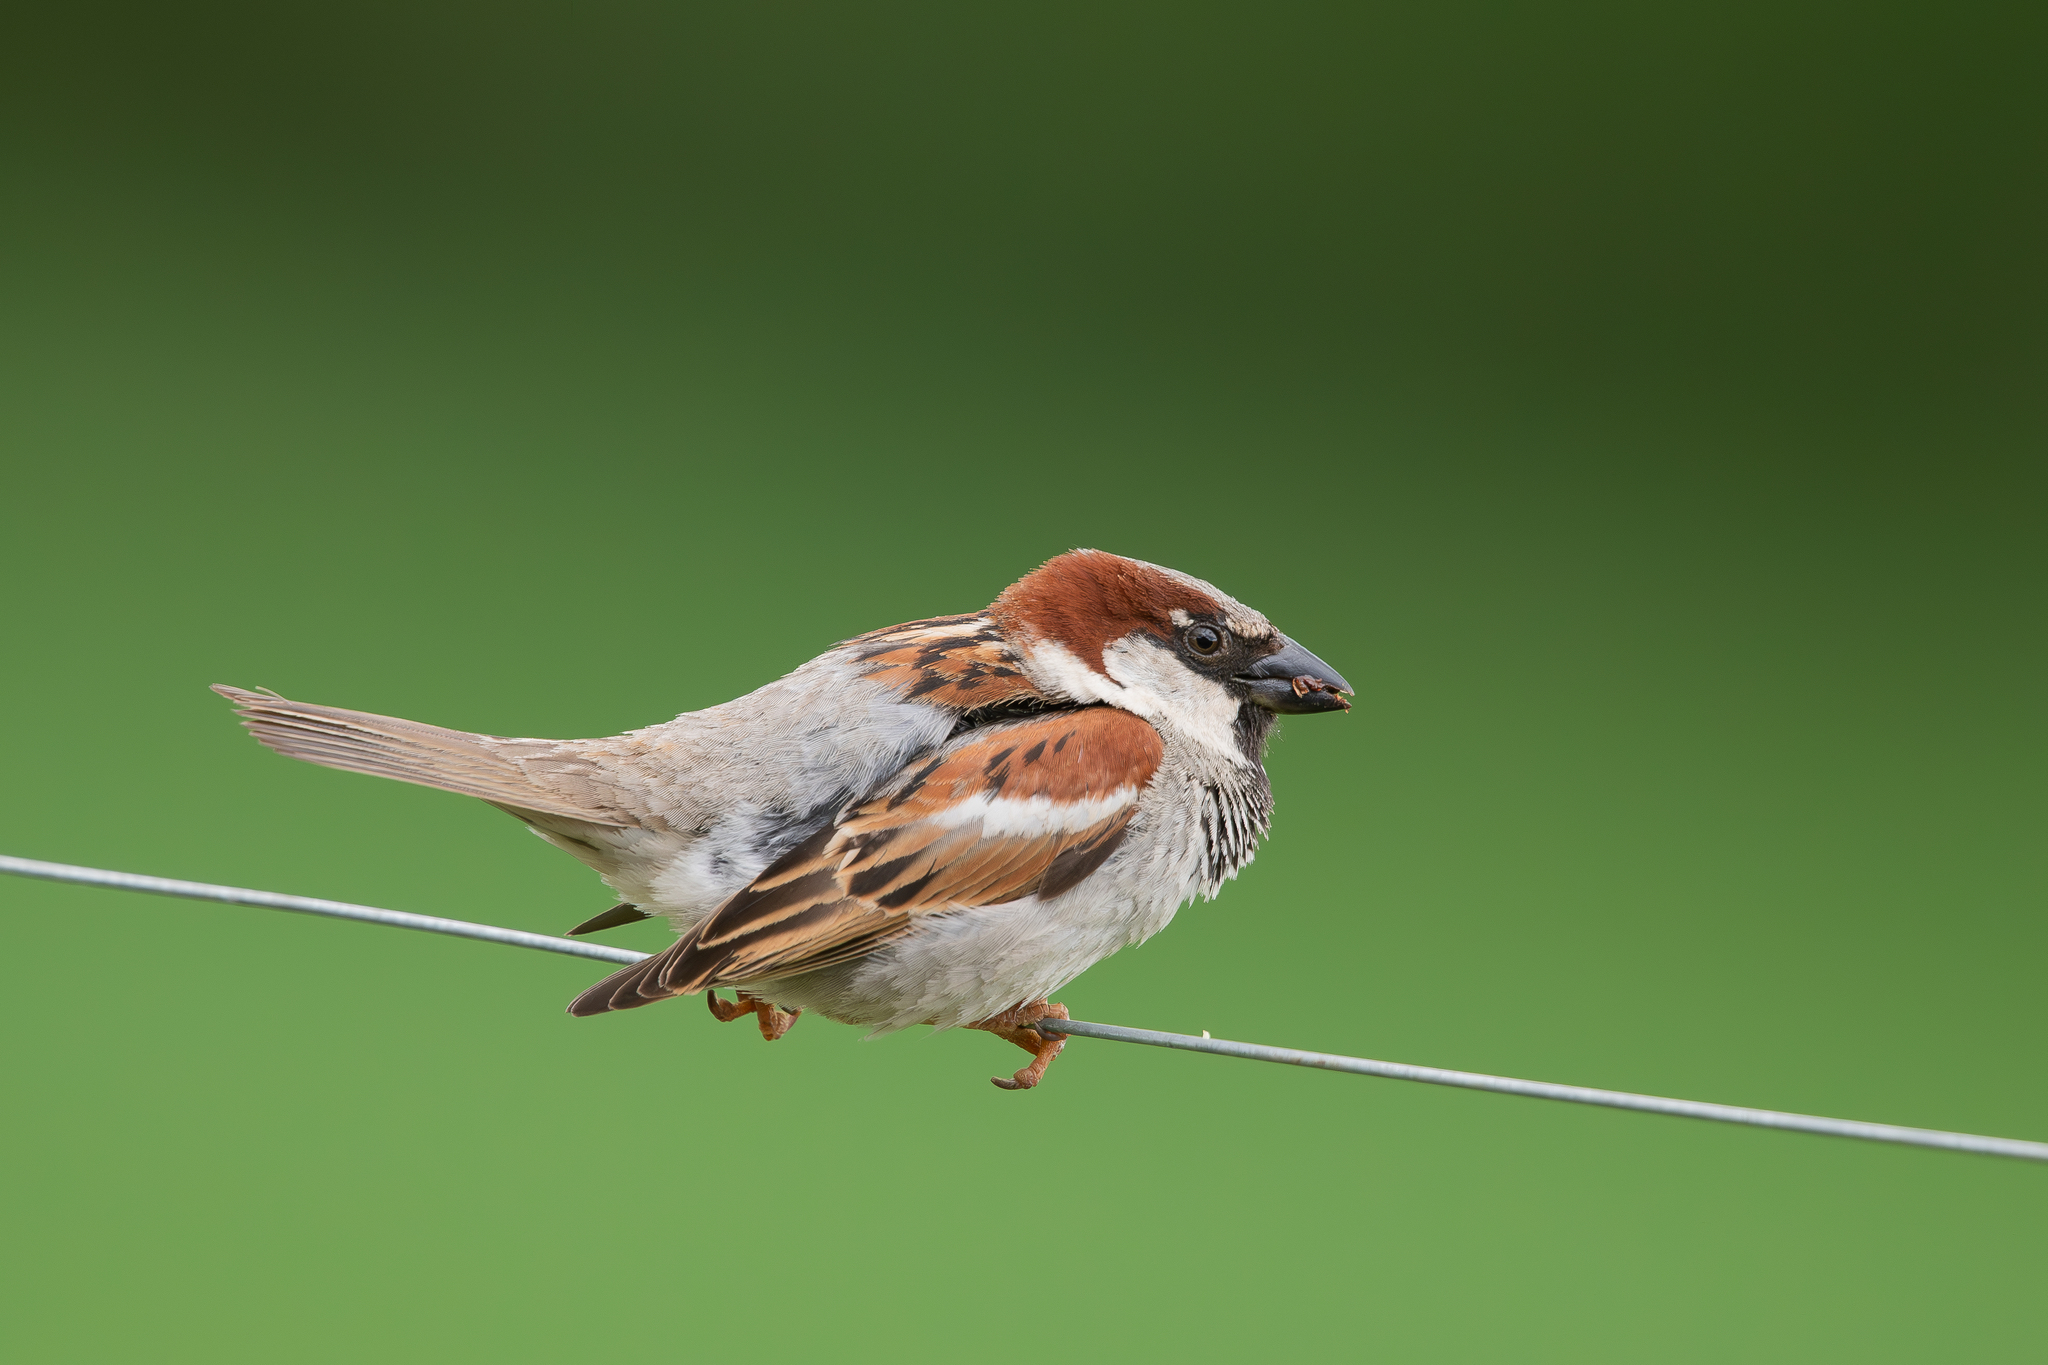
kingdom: Animalia
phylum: Chordata
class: Aves
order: Passeriformes
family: Passeridae
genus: Passer
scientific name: Passer domesticus
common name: House sparrow
